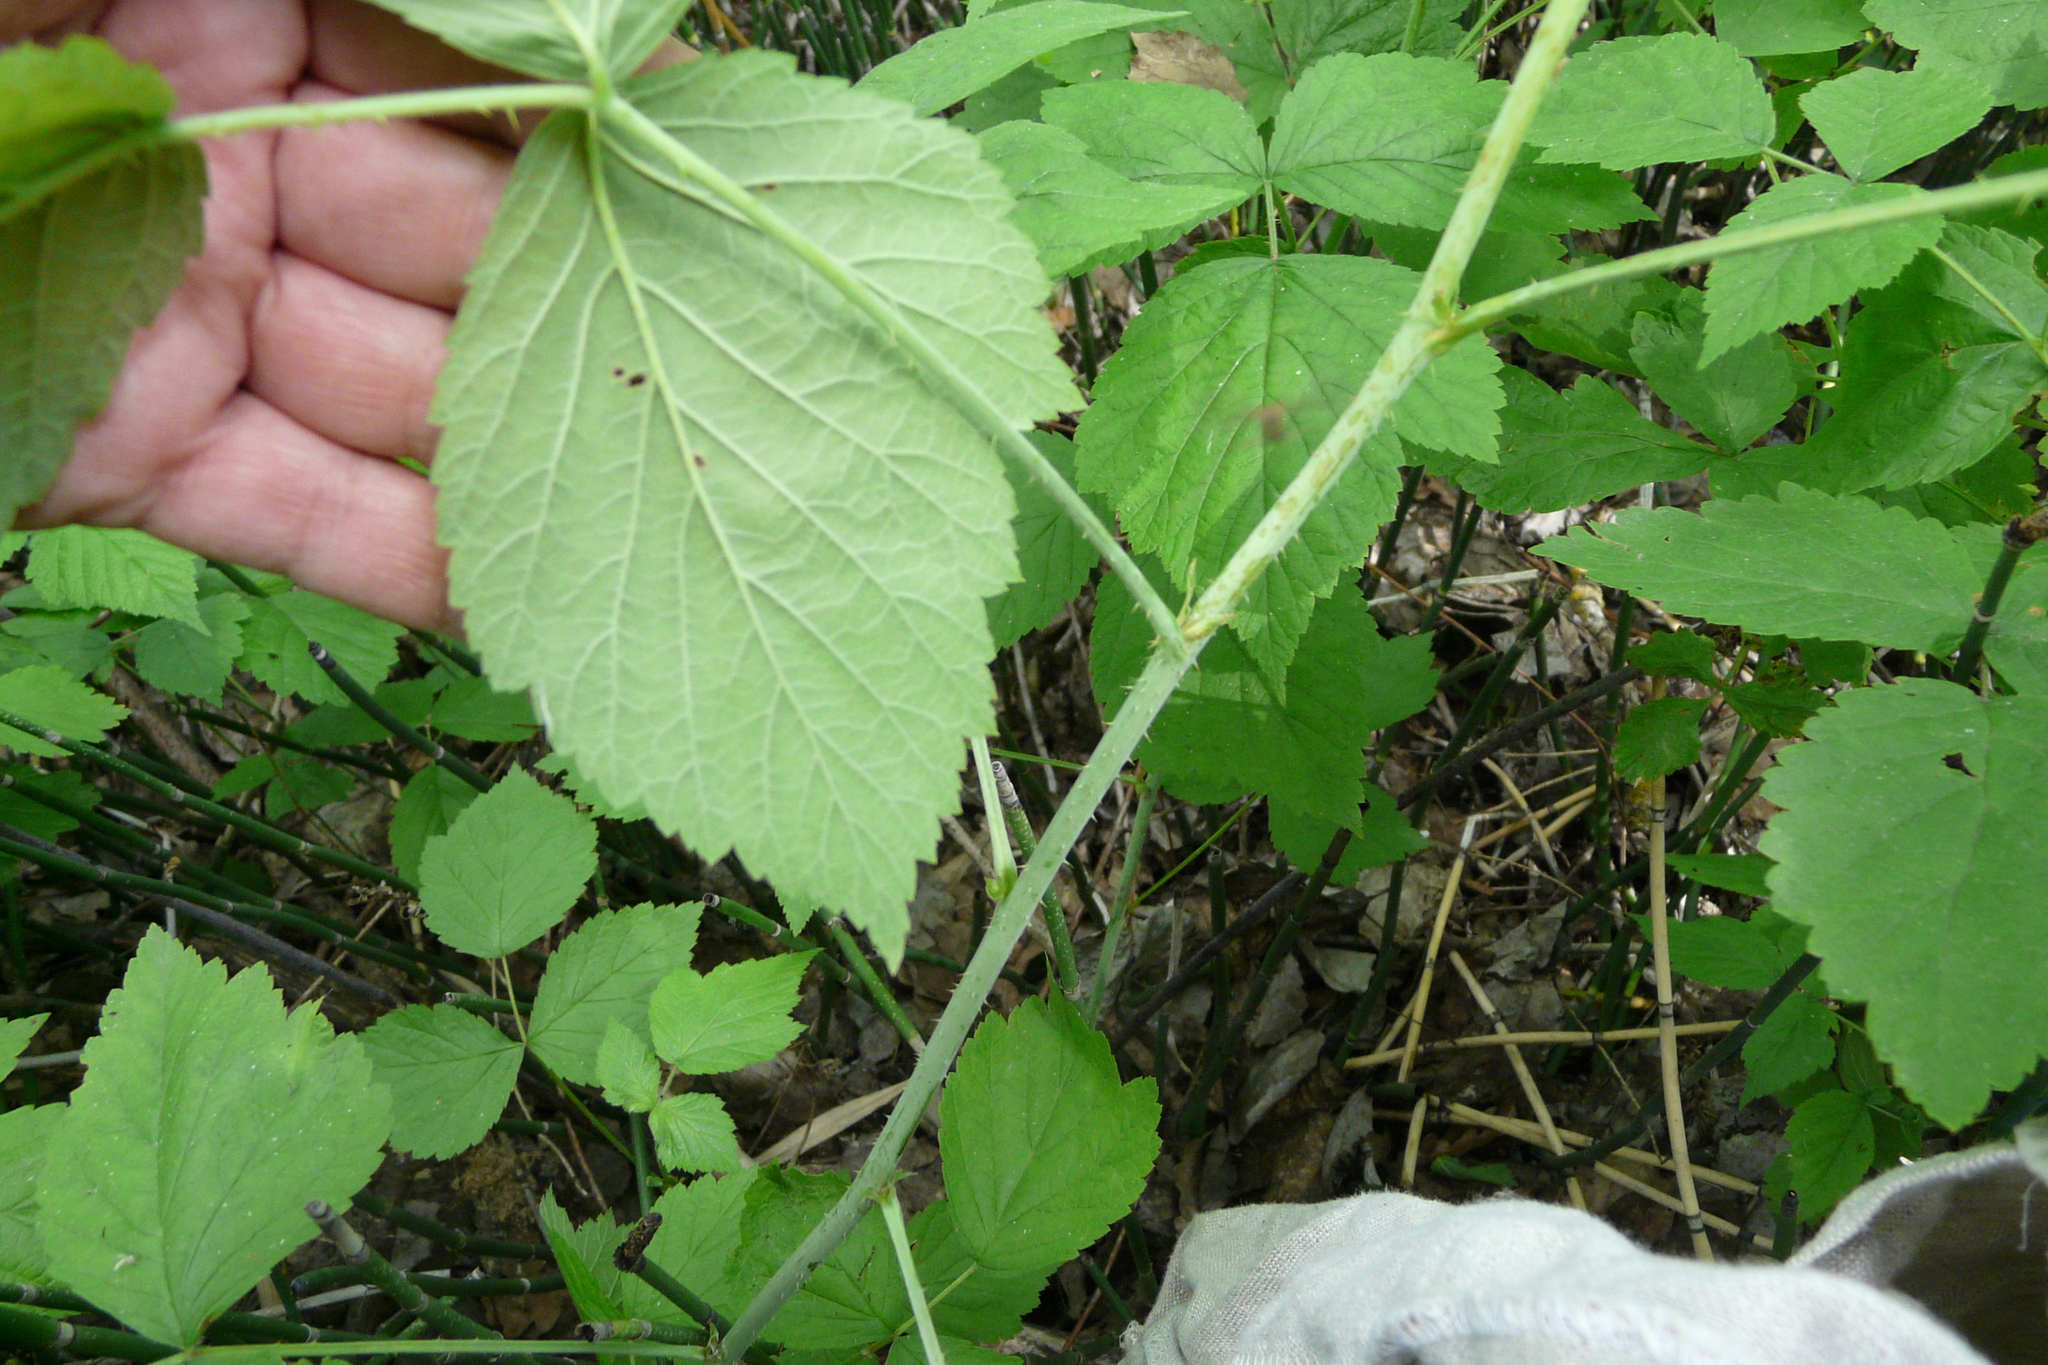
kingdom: Plantae
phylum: Tracheophyta
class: Magnoliopsida
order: Rosales
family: Rosaceae
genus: Rubus
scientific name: Rubus caesius
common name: Dewberry
